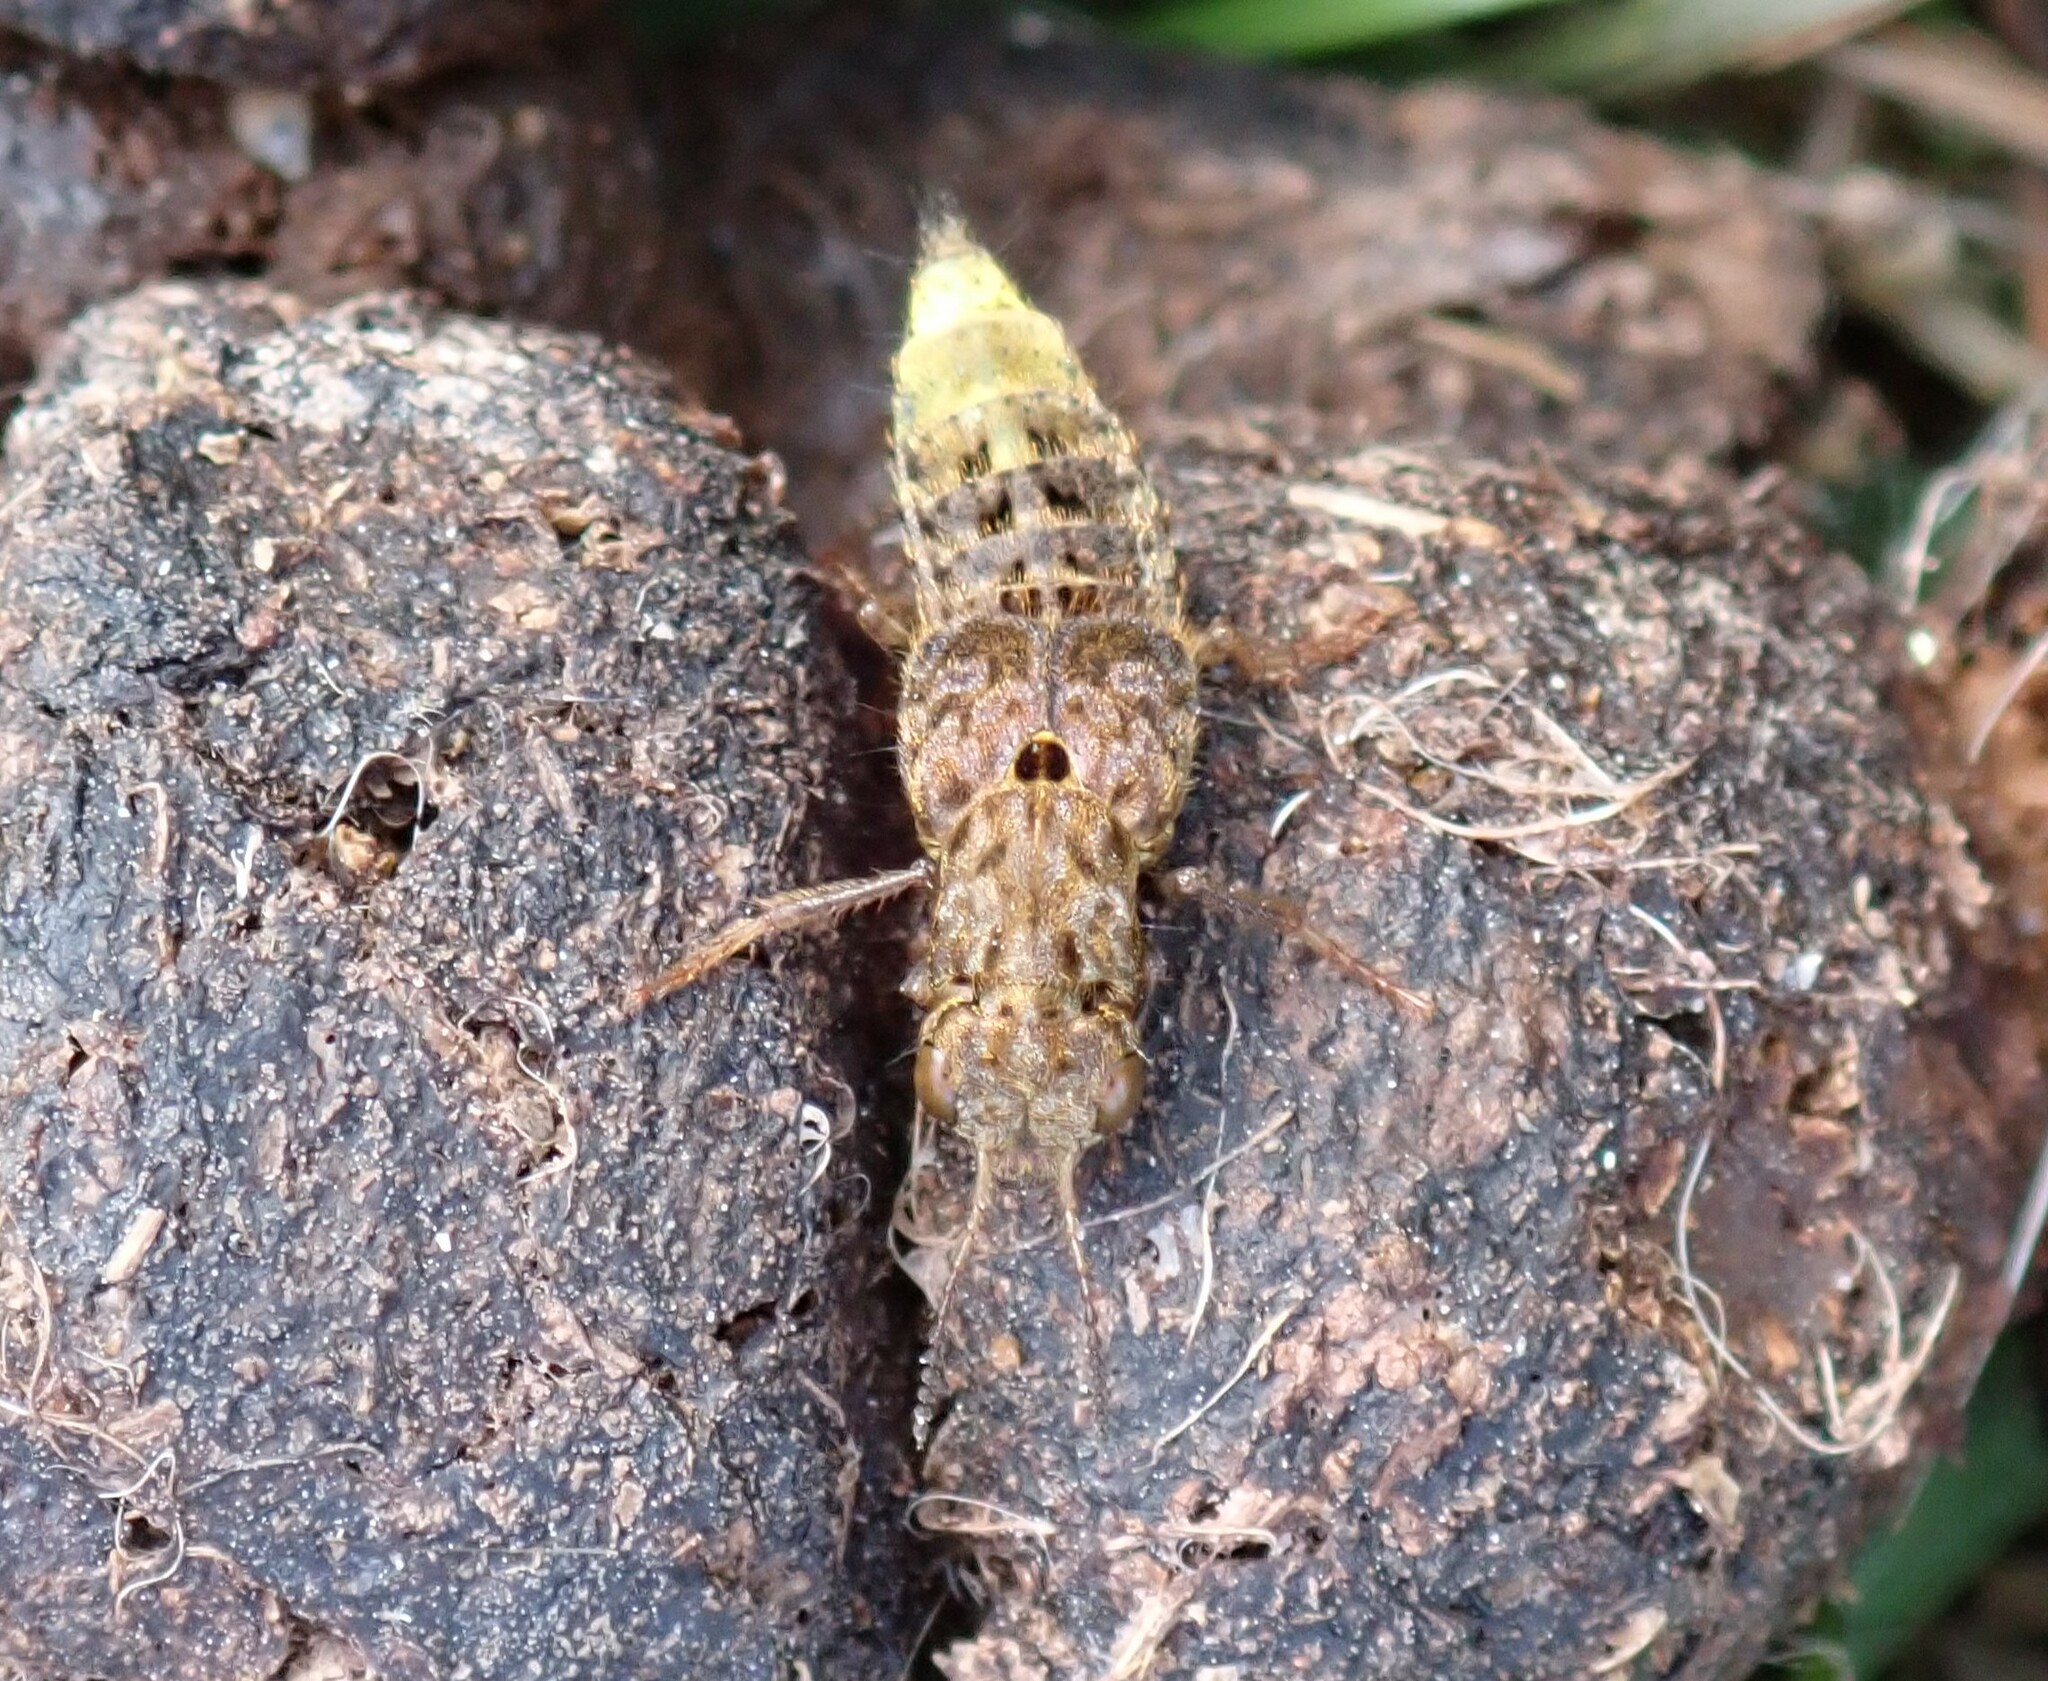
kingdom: Animalia
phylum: Arthropoda
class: Insecta
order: Coleoptera
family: Staphylinidae
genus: Ontholestes
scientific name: Ontholestes cingulatus
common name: Gold-and-brown rove beetle
